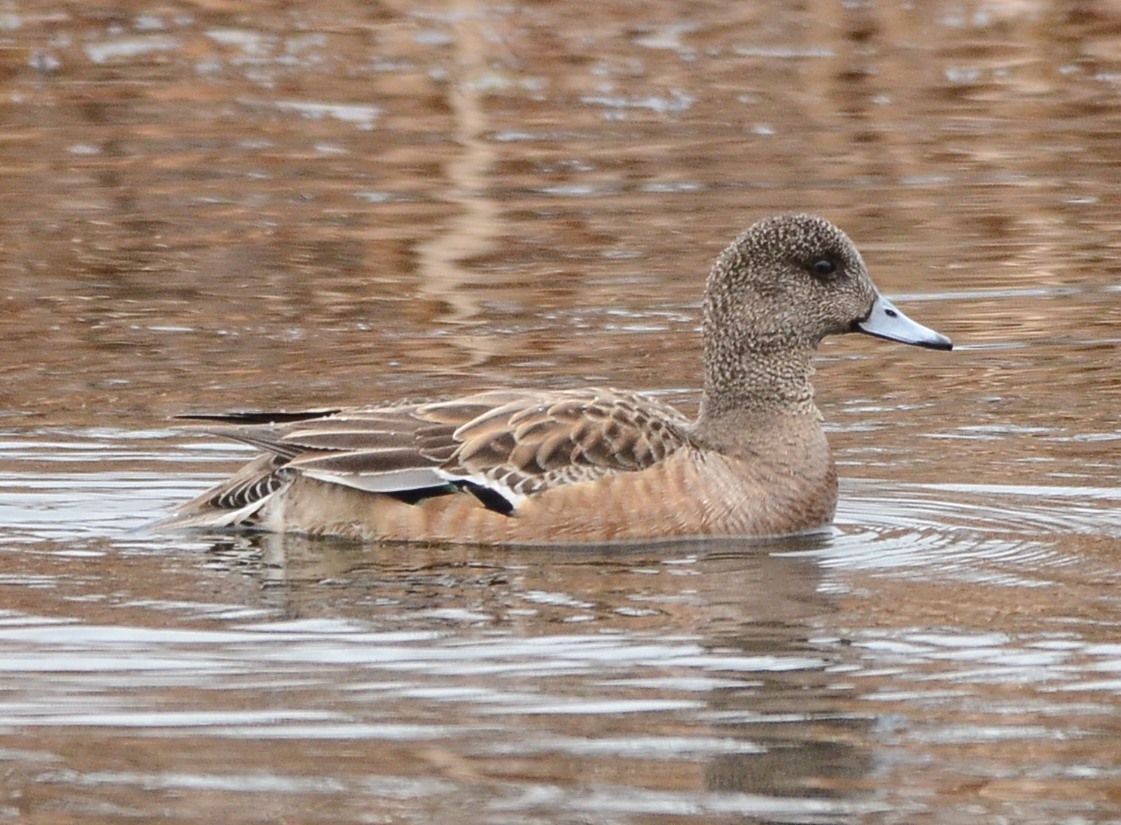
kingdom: Animalia
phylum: Chordata
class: Aves
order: Anseriformes
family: Anatidae
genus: Mareca
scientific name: Mareca americana
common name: American wigeon
